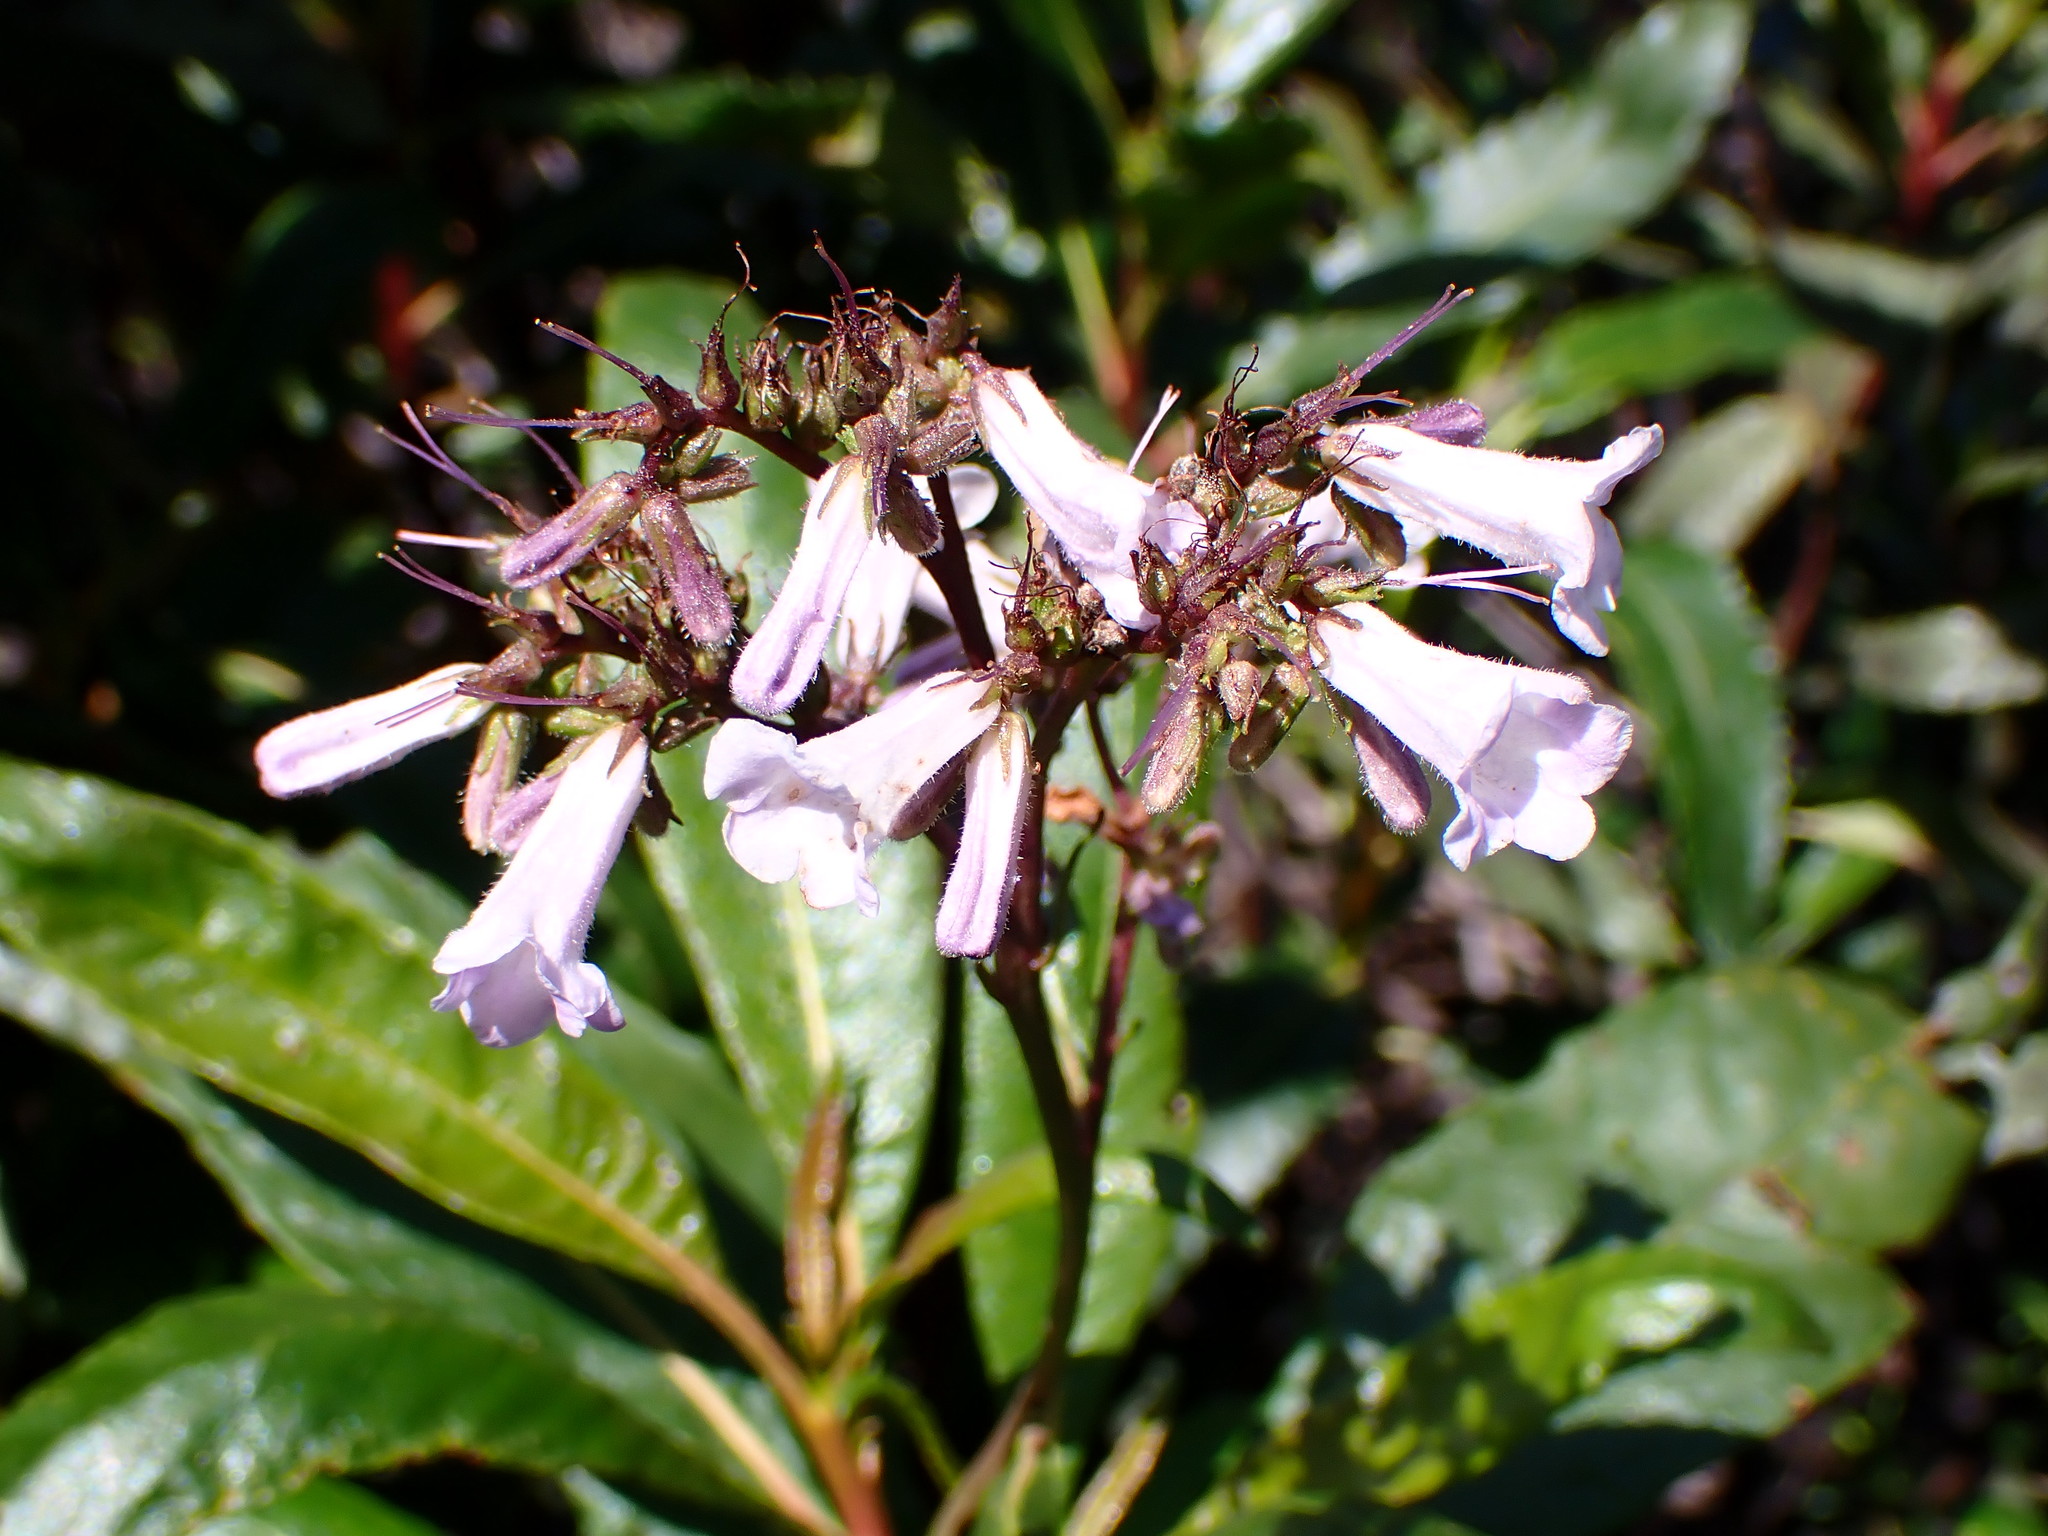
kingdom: Plantae
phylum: Tracheophyta
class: Magnoliopsida
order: Boraginales
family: Namaceae
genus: Eriodictyon
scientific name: Eriodictyon californicum
